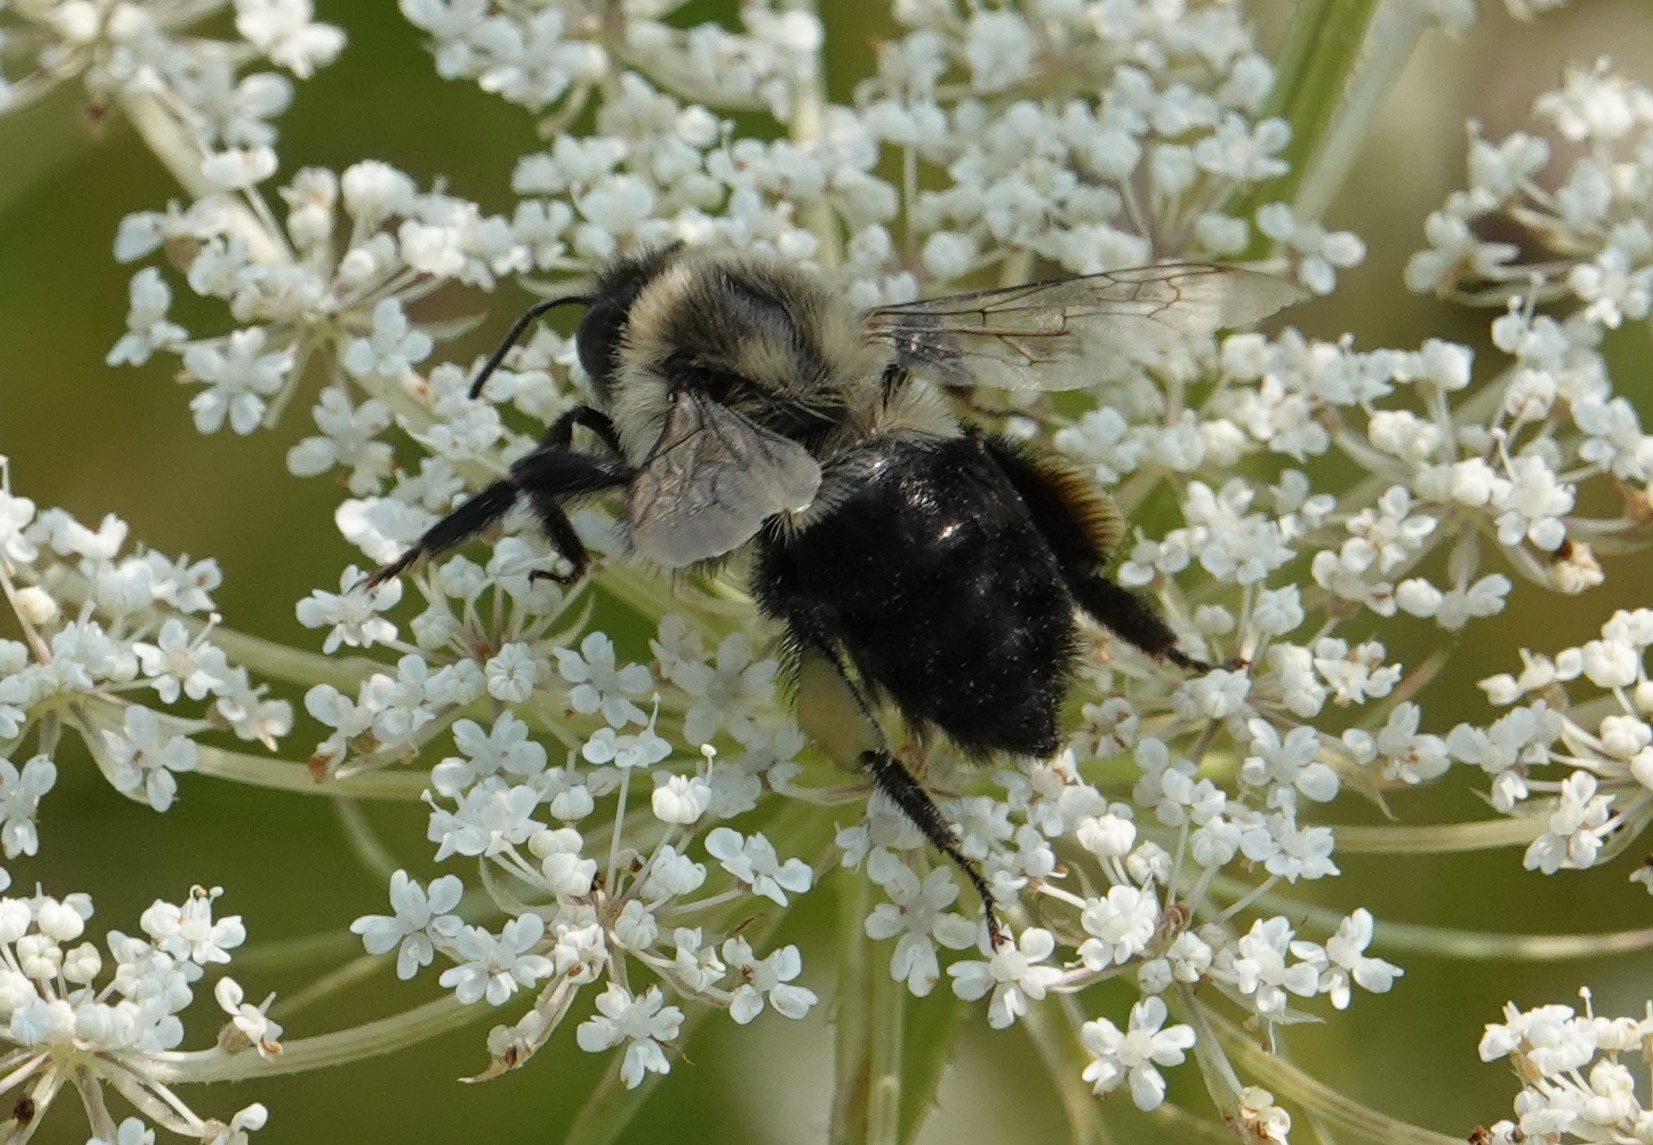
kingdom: Animalia
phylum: Arthropoda
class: Insecta
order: Hymenoptera
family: Apidae
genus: Bombus
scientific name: Bombus impatiens
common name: Common eastern bumble bee
